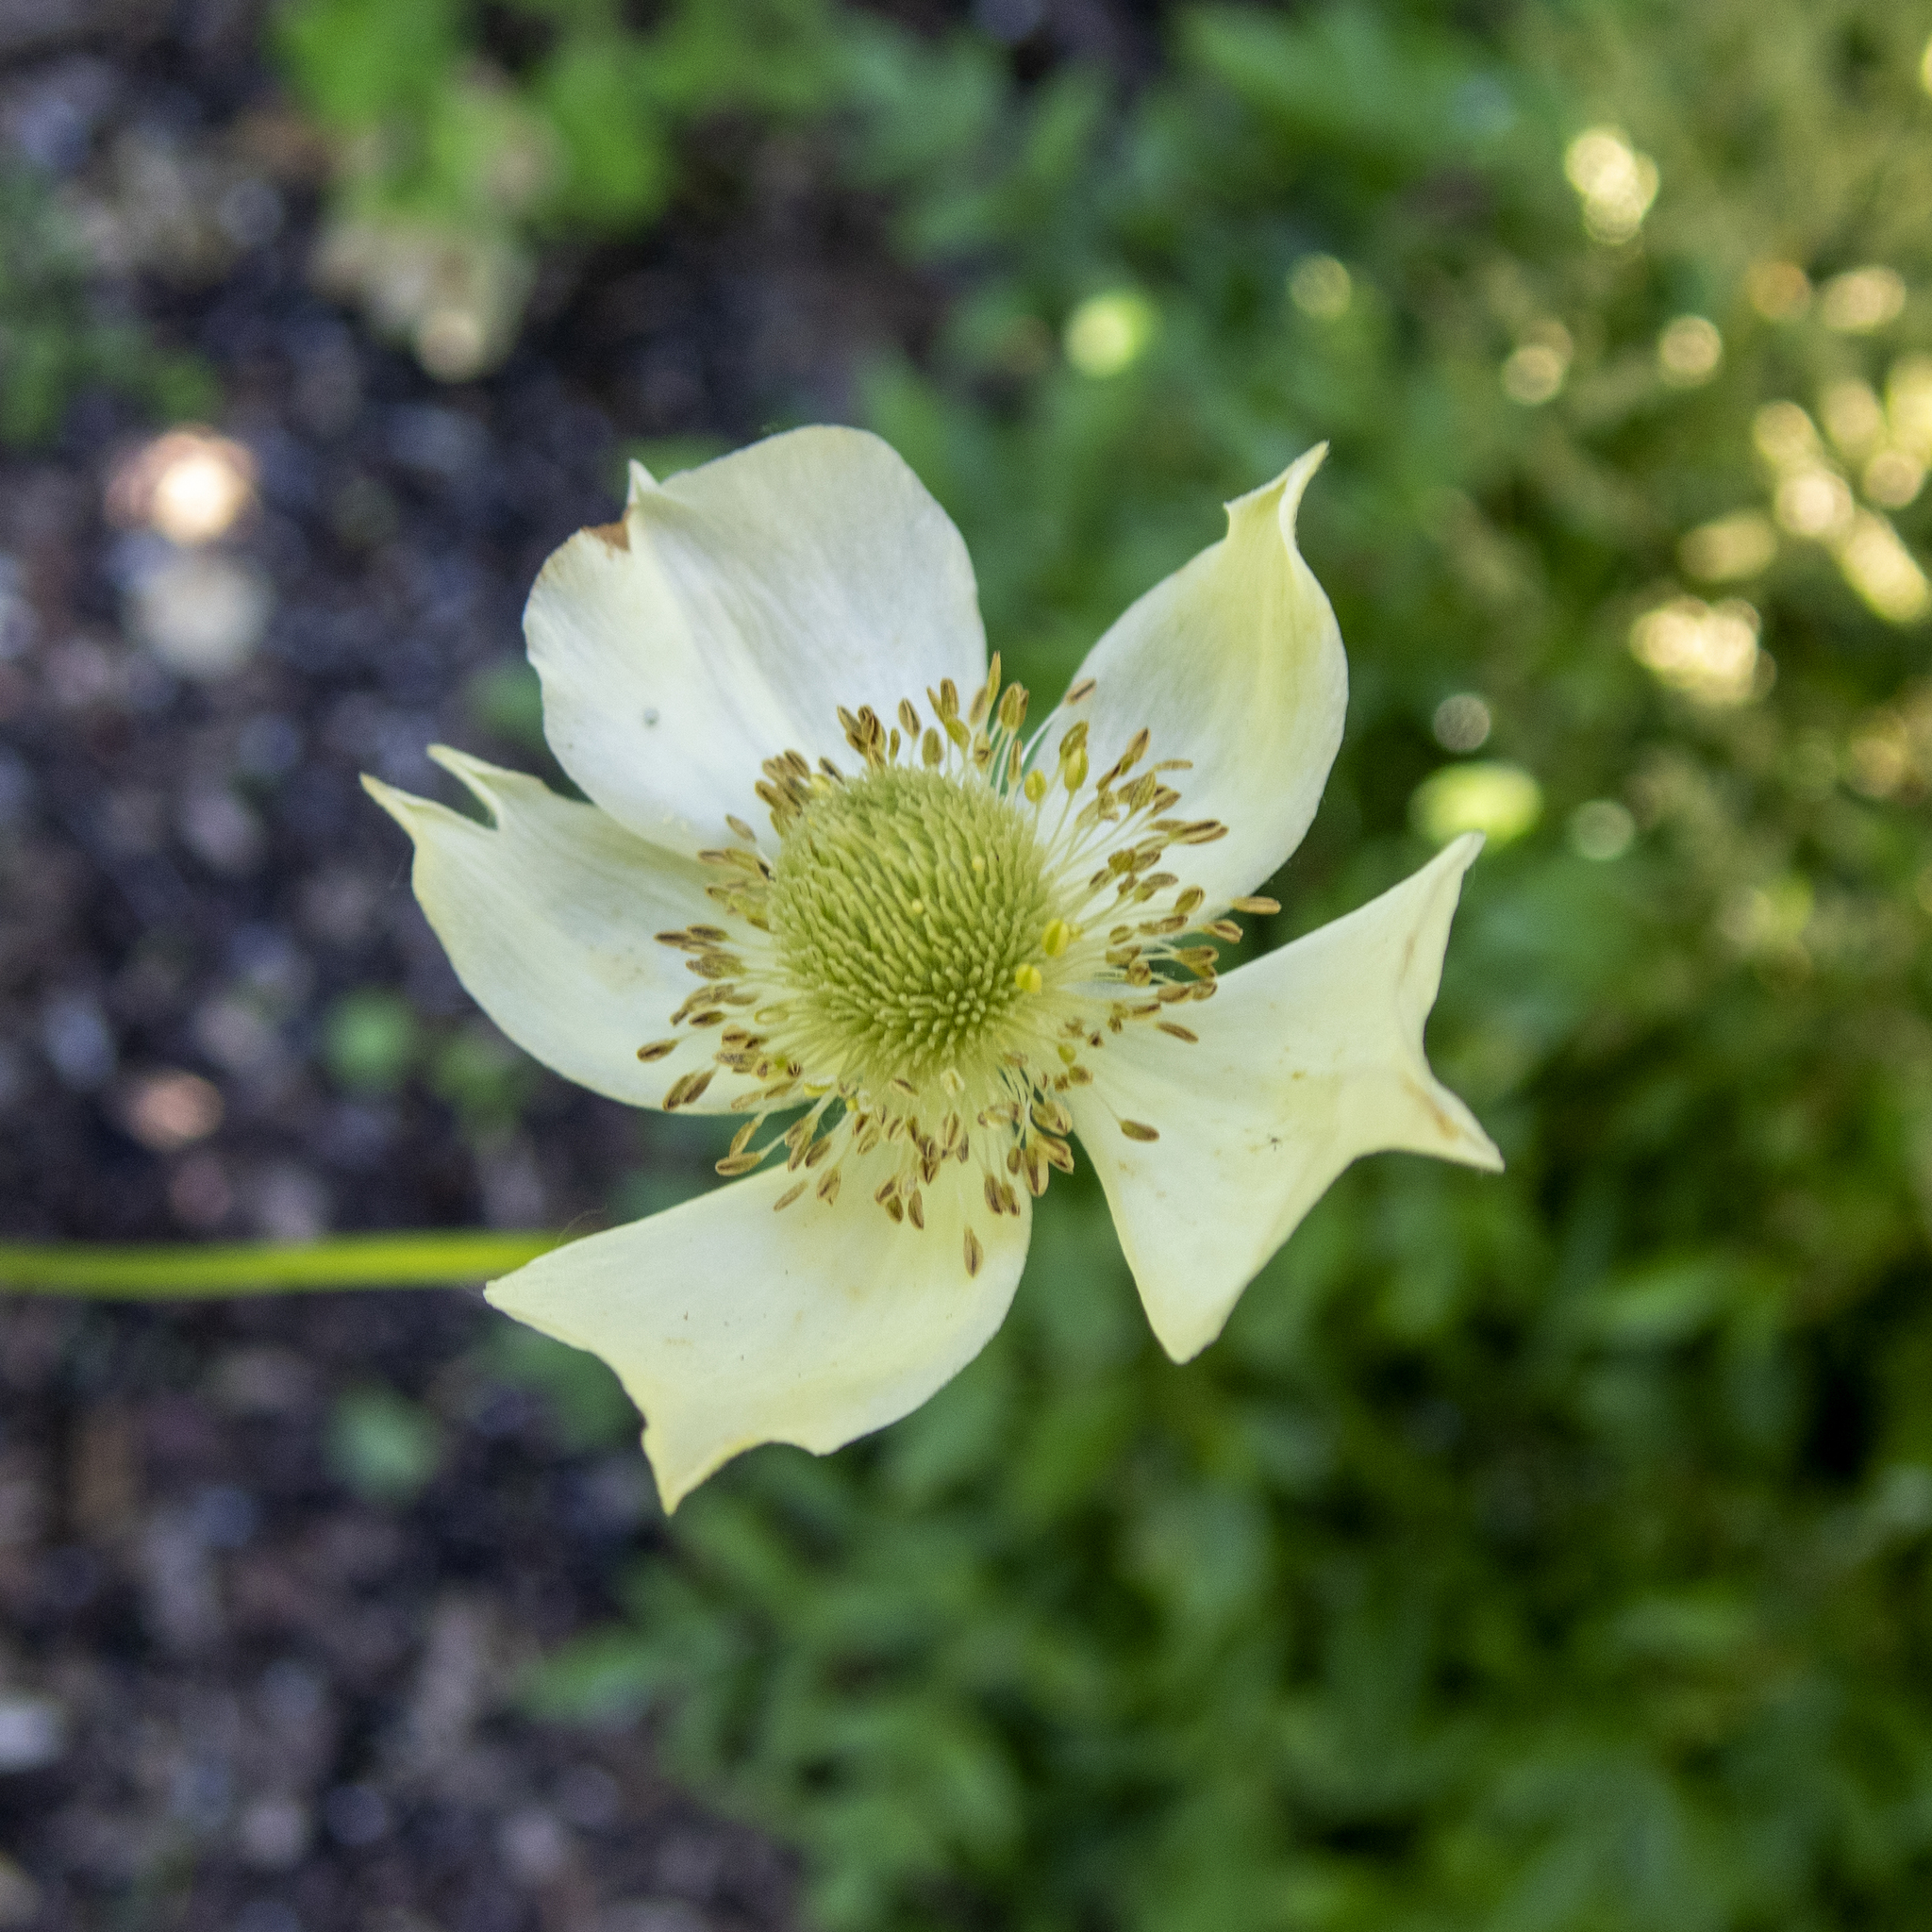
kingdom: Plantae
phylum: Tracheophyta
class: Magnoliopsida
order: Ranunculales
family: Ranunculaceae
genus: Anemone
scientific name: Anemone virginiana
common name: Tall anemone
